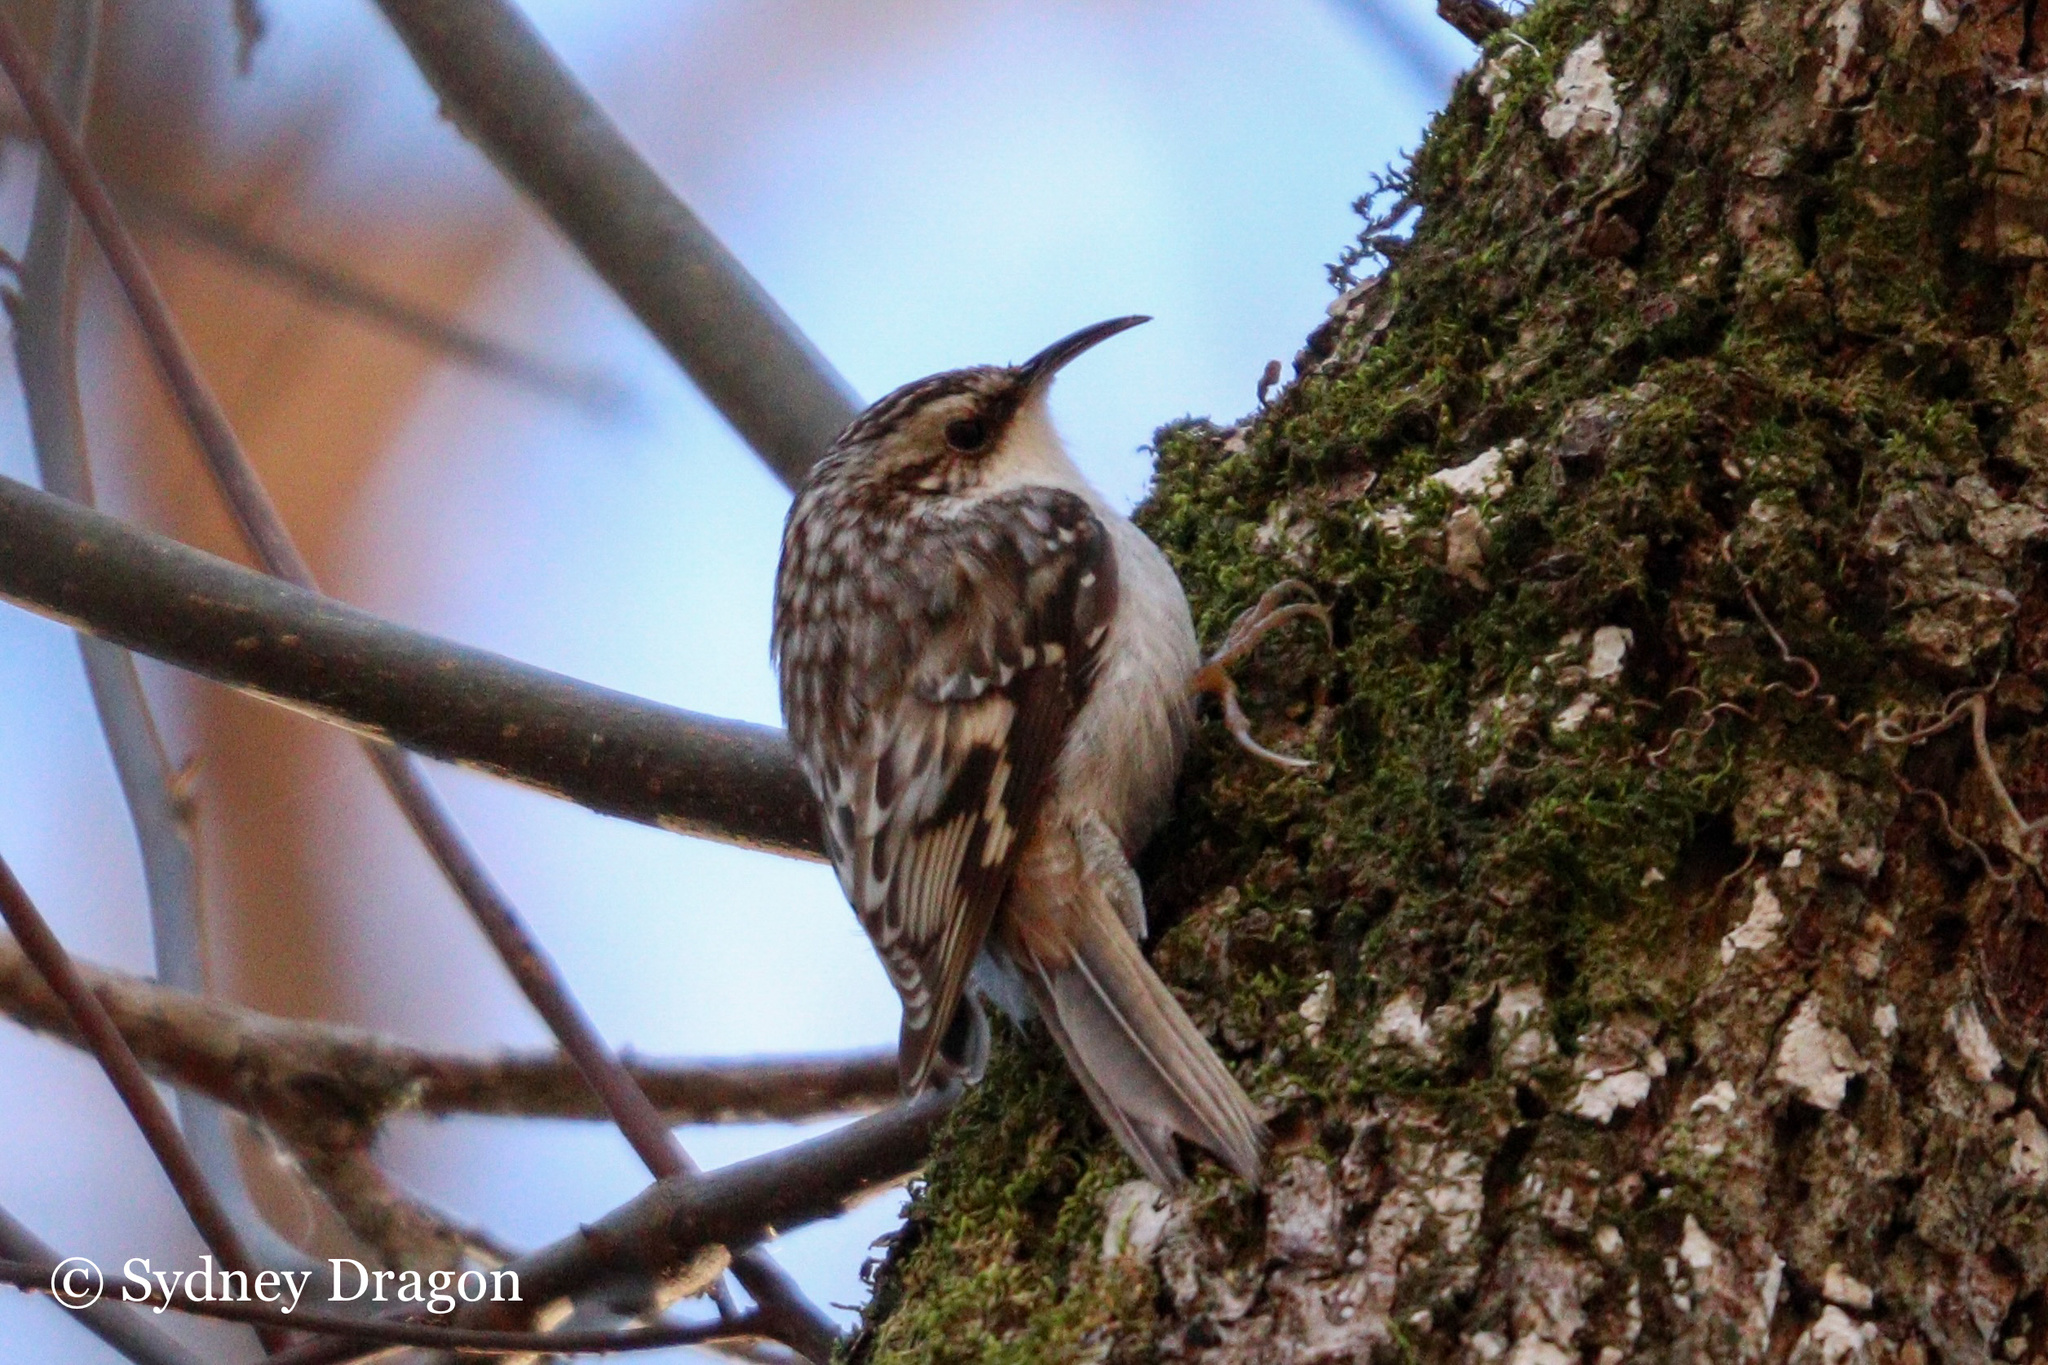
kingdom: Animalia
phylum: Chordata
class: Aves
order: Passeriformes
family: Certhiidae
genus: Certhia
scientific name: Certhia americana
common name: Brown creeper
